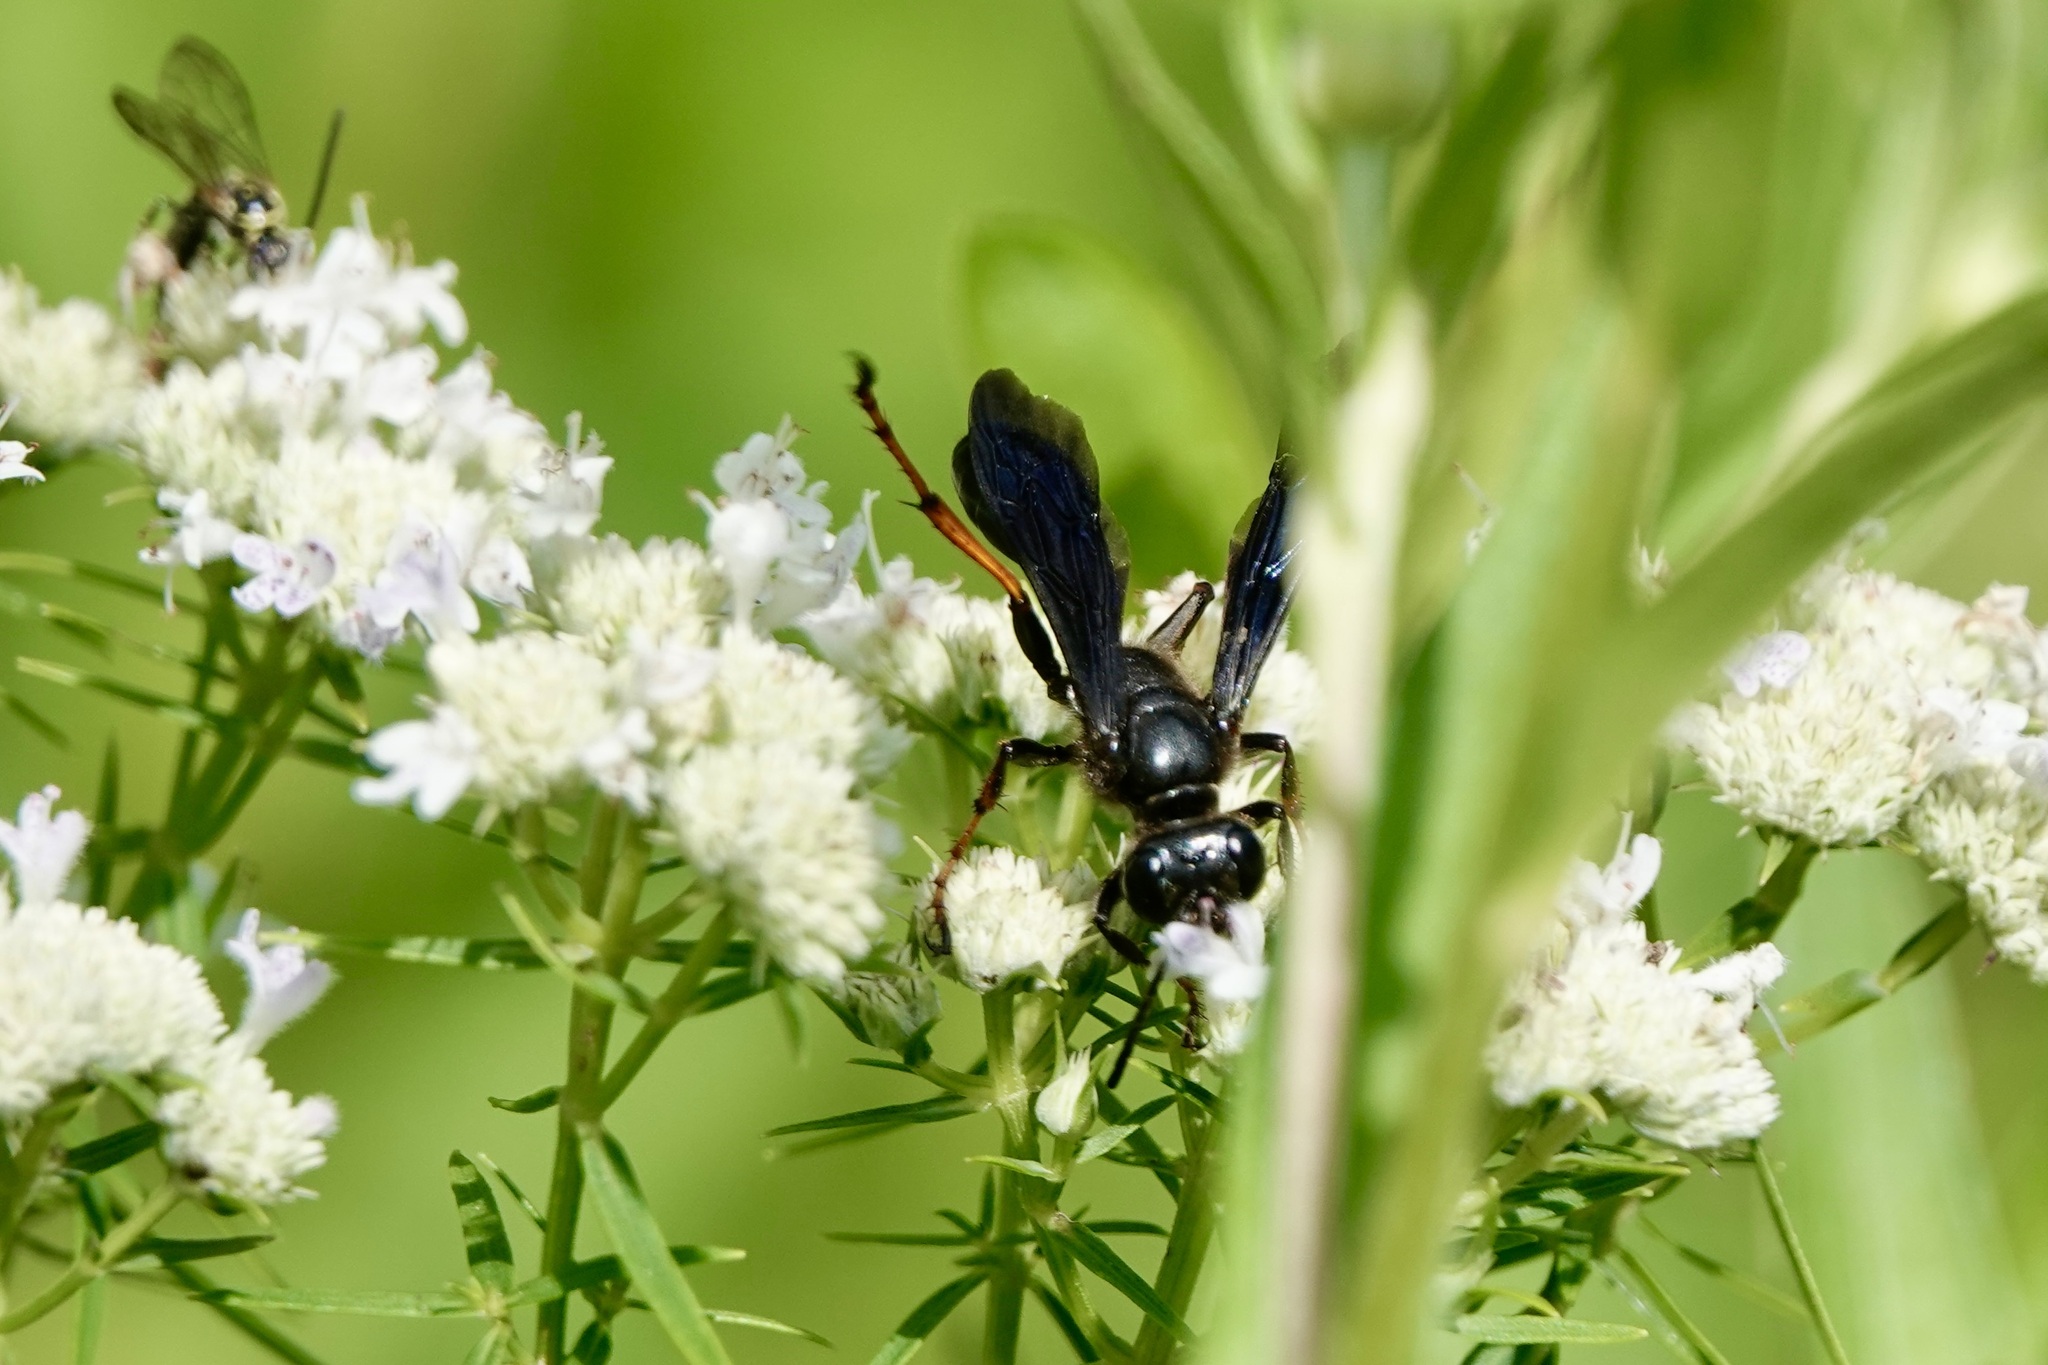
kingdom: Animalia
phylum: Arthropoda
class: Insecta
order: Hymenoptera
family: Sphecidae
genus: Isodontia
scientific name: Isodontia auripes
